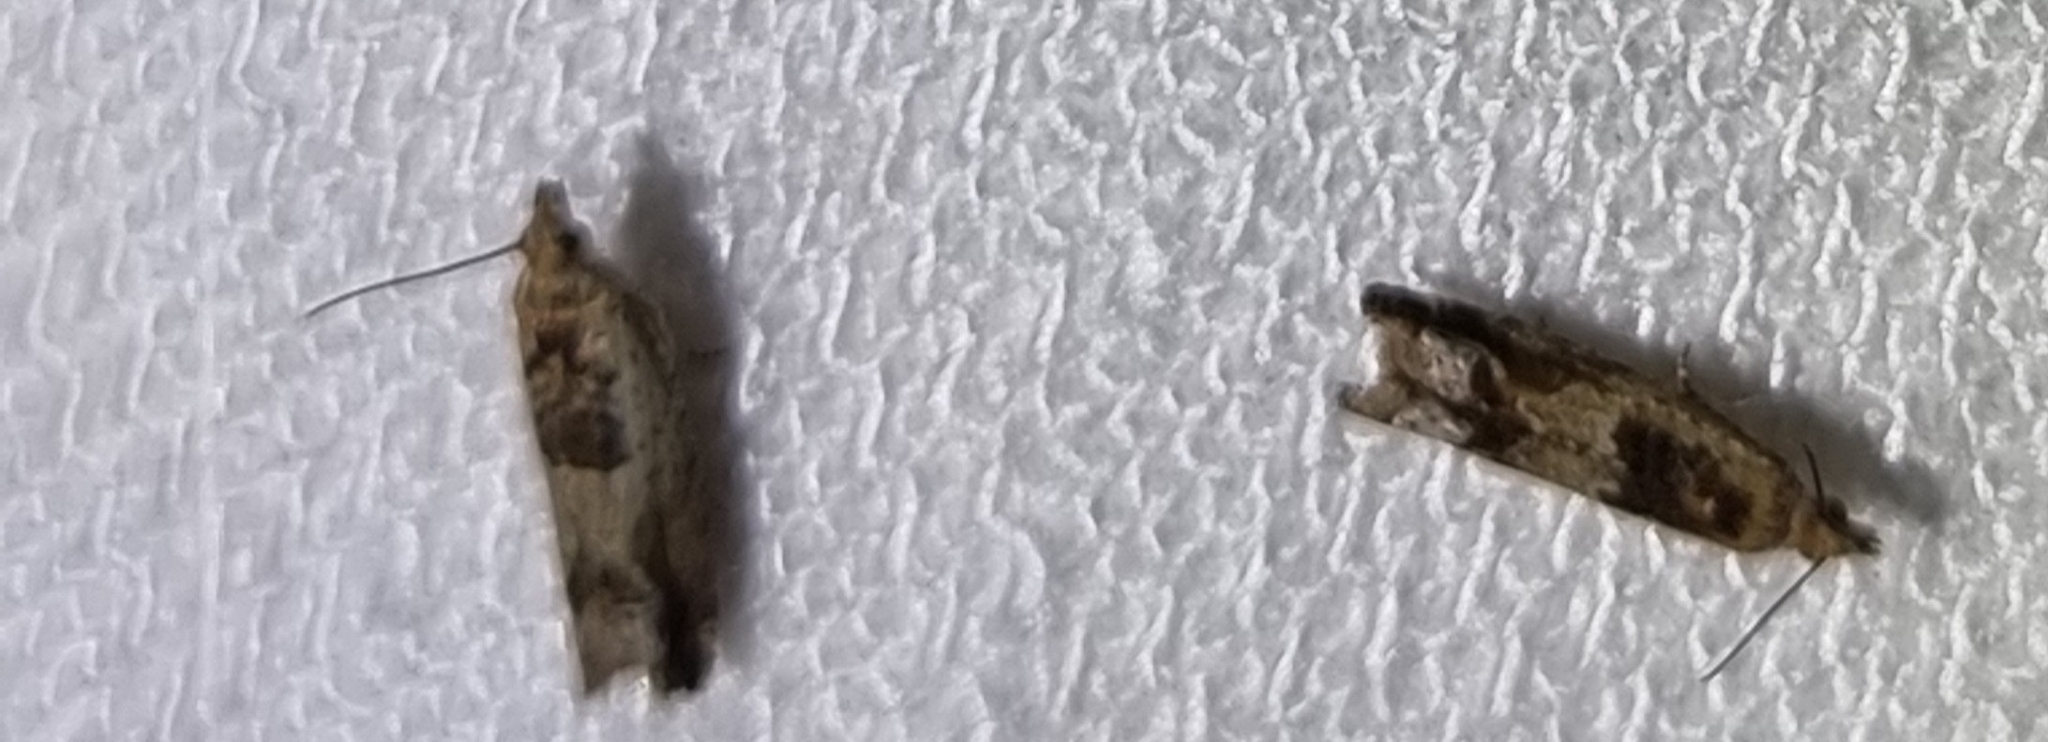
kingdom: Animalia
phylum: Arthropoda
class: Insecta
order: Lepidoptera
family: Tortricidae
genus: Crocidosema
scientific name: Crocidosema plebejana
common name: Southern bell
